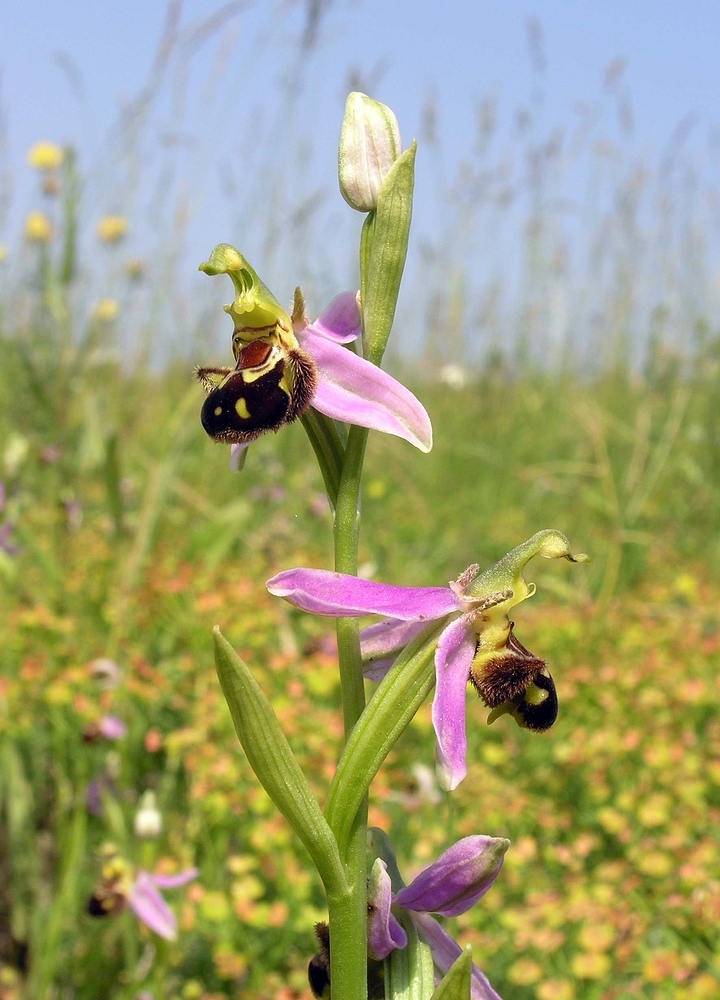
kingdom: Plantae
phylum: Tracheophyta
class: Liliopsida
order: Asparagales
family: Orchidaceae
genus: Ophrys
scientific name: Ophrys apifera
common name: Bee orchid
